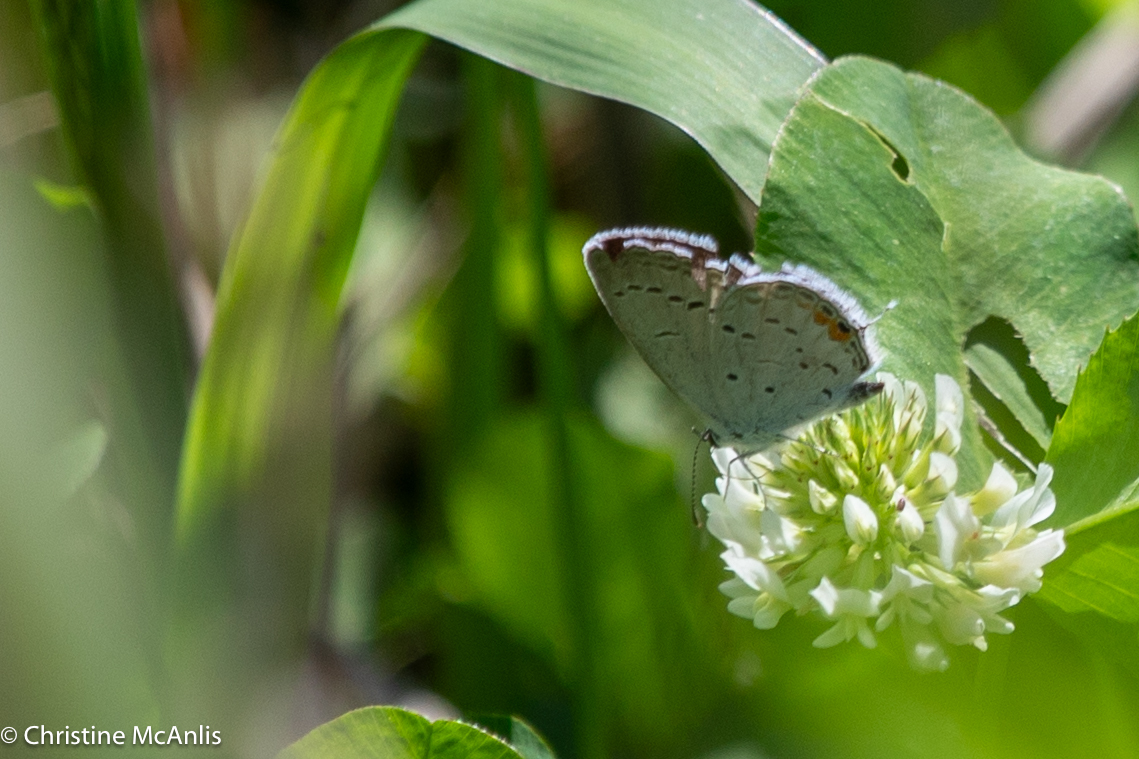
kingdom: Animalia
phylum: Arthropoda
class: Insecta
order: Lepidoptera
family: Lycaenidae
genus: Elkalyce
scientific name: Elkalyce comyntas
